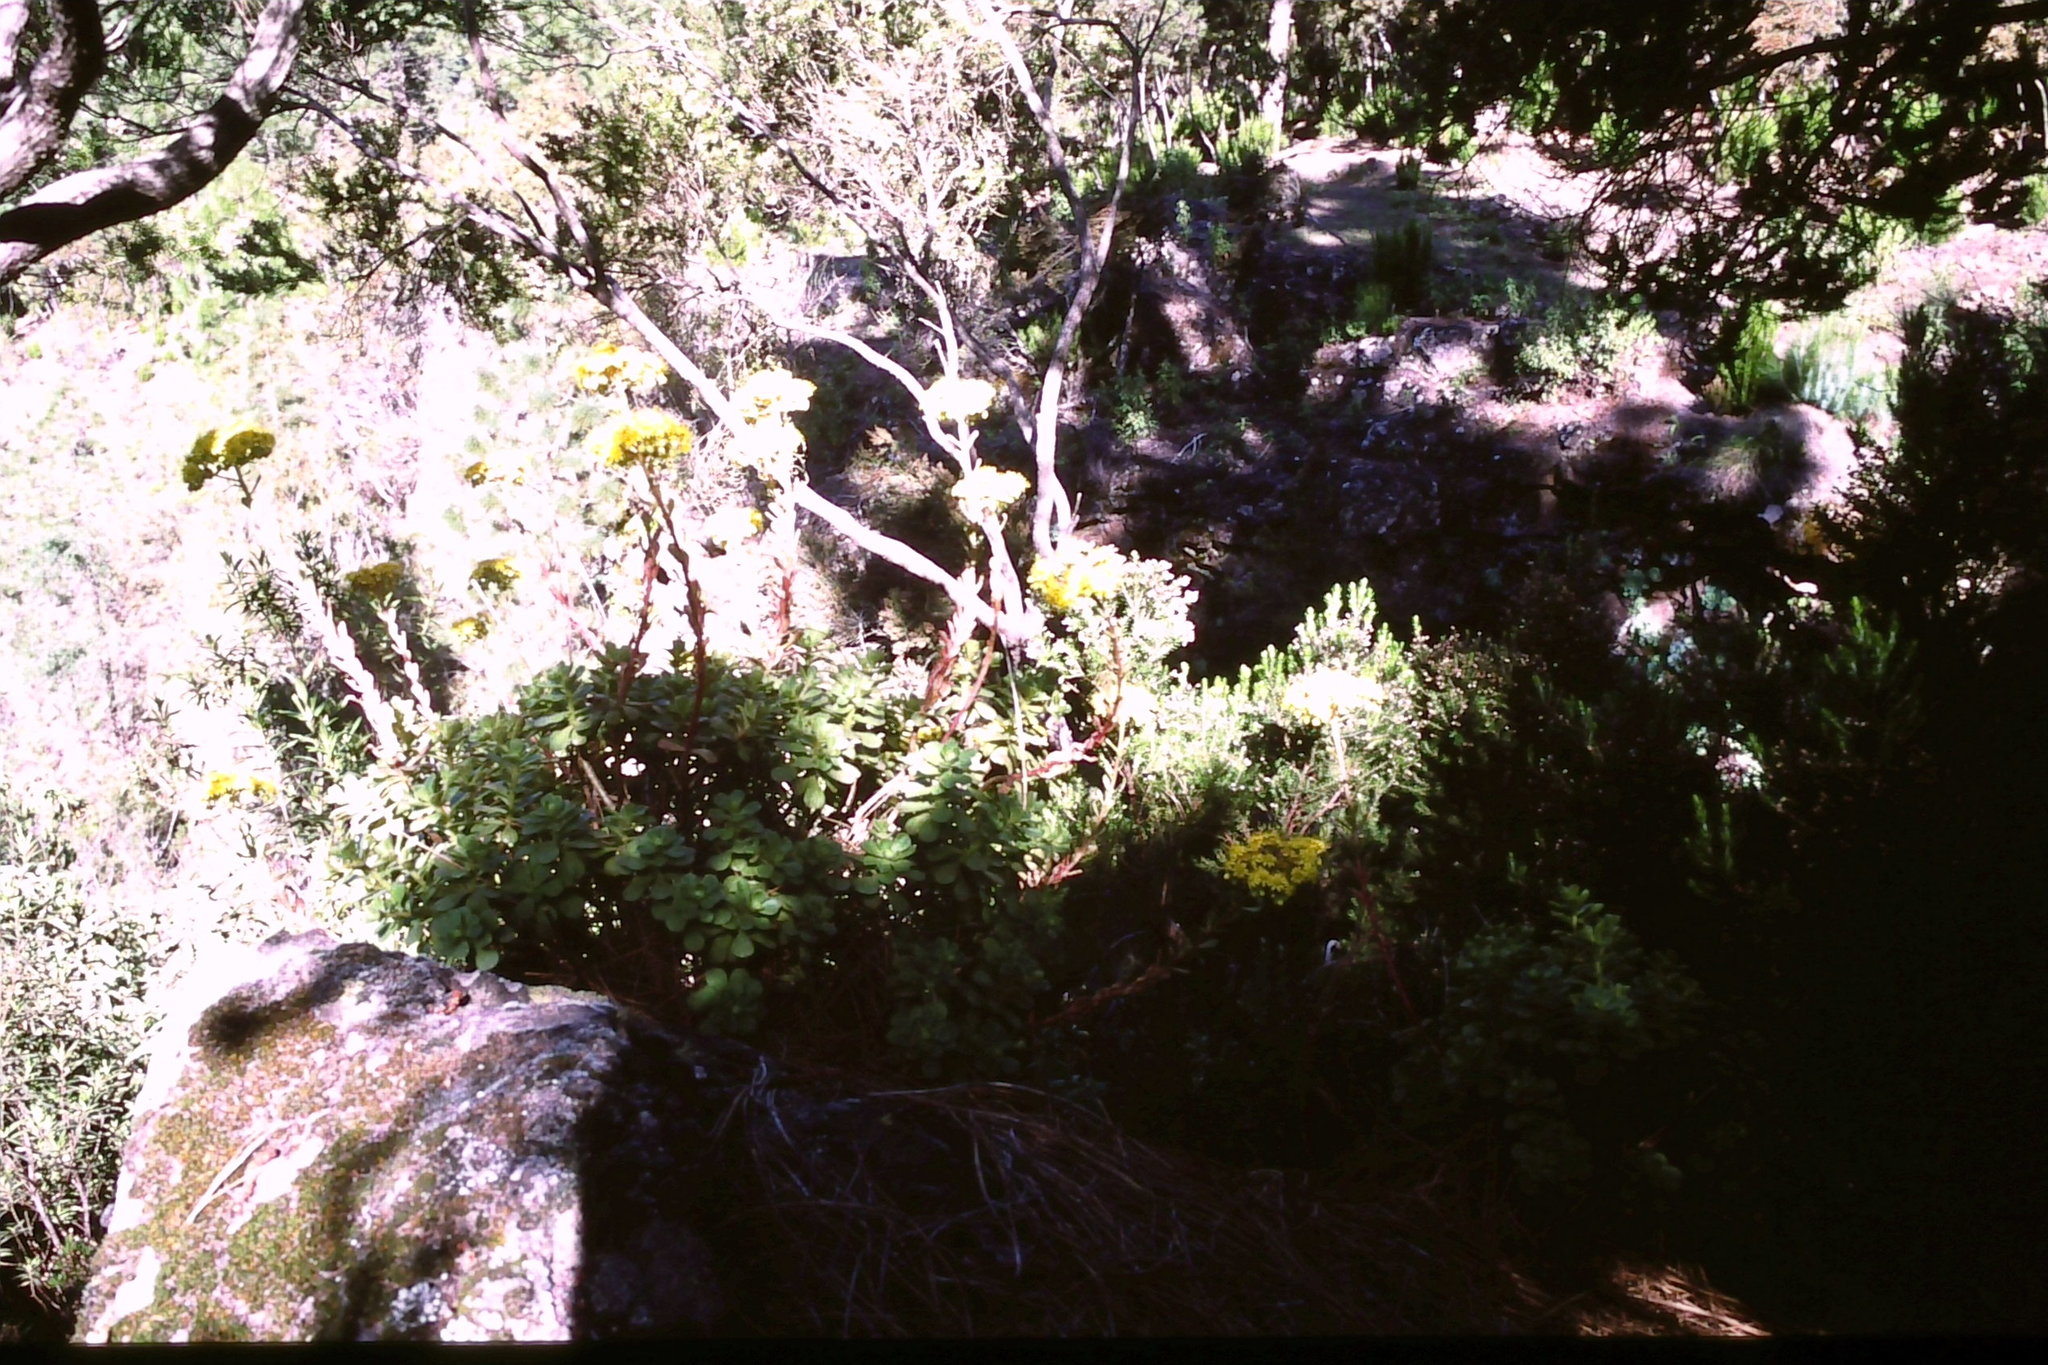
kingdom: Plantae
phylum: Tracheophyta
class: Magnoliopsida
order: Saxifragales
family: Crassulaceae
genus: Aeonium
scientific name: Aeonium spathulatum
